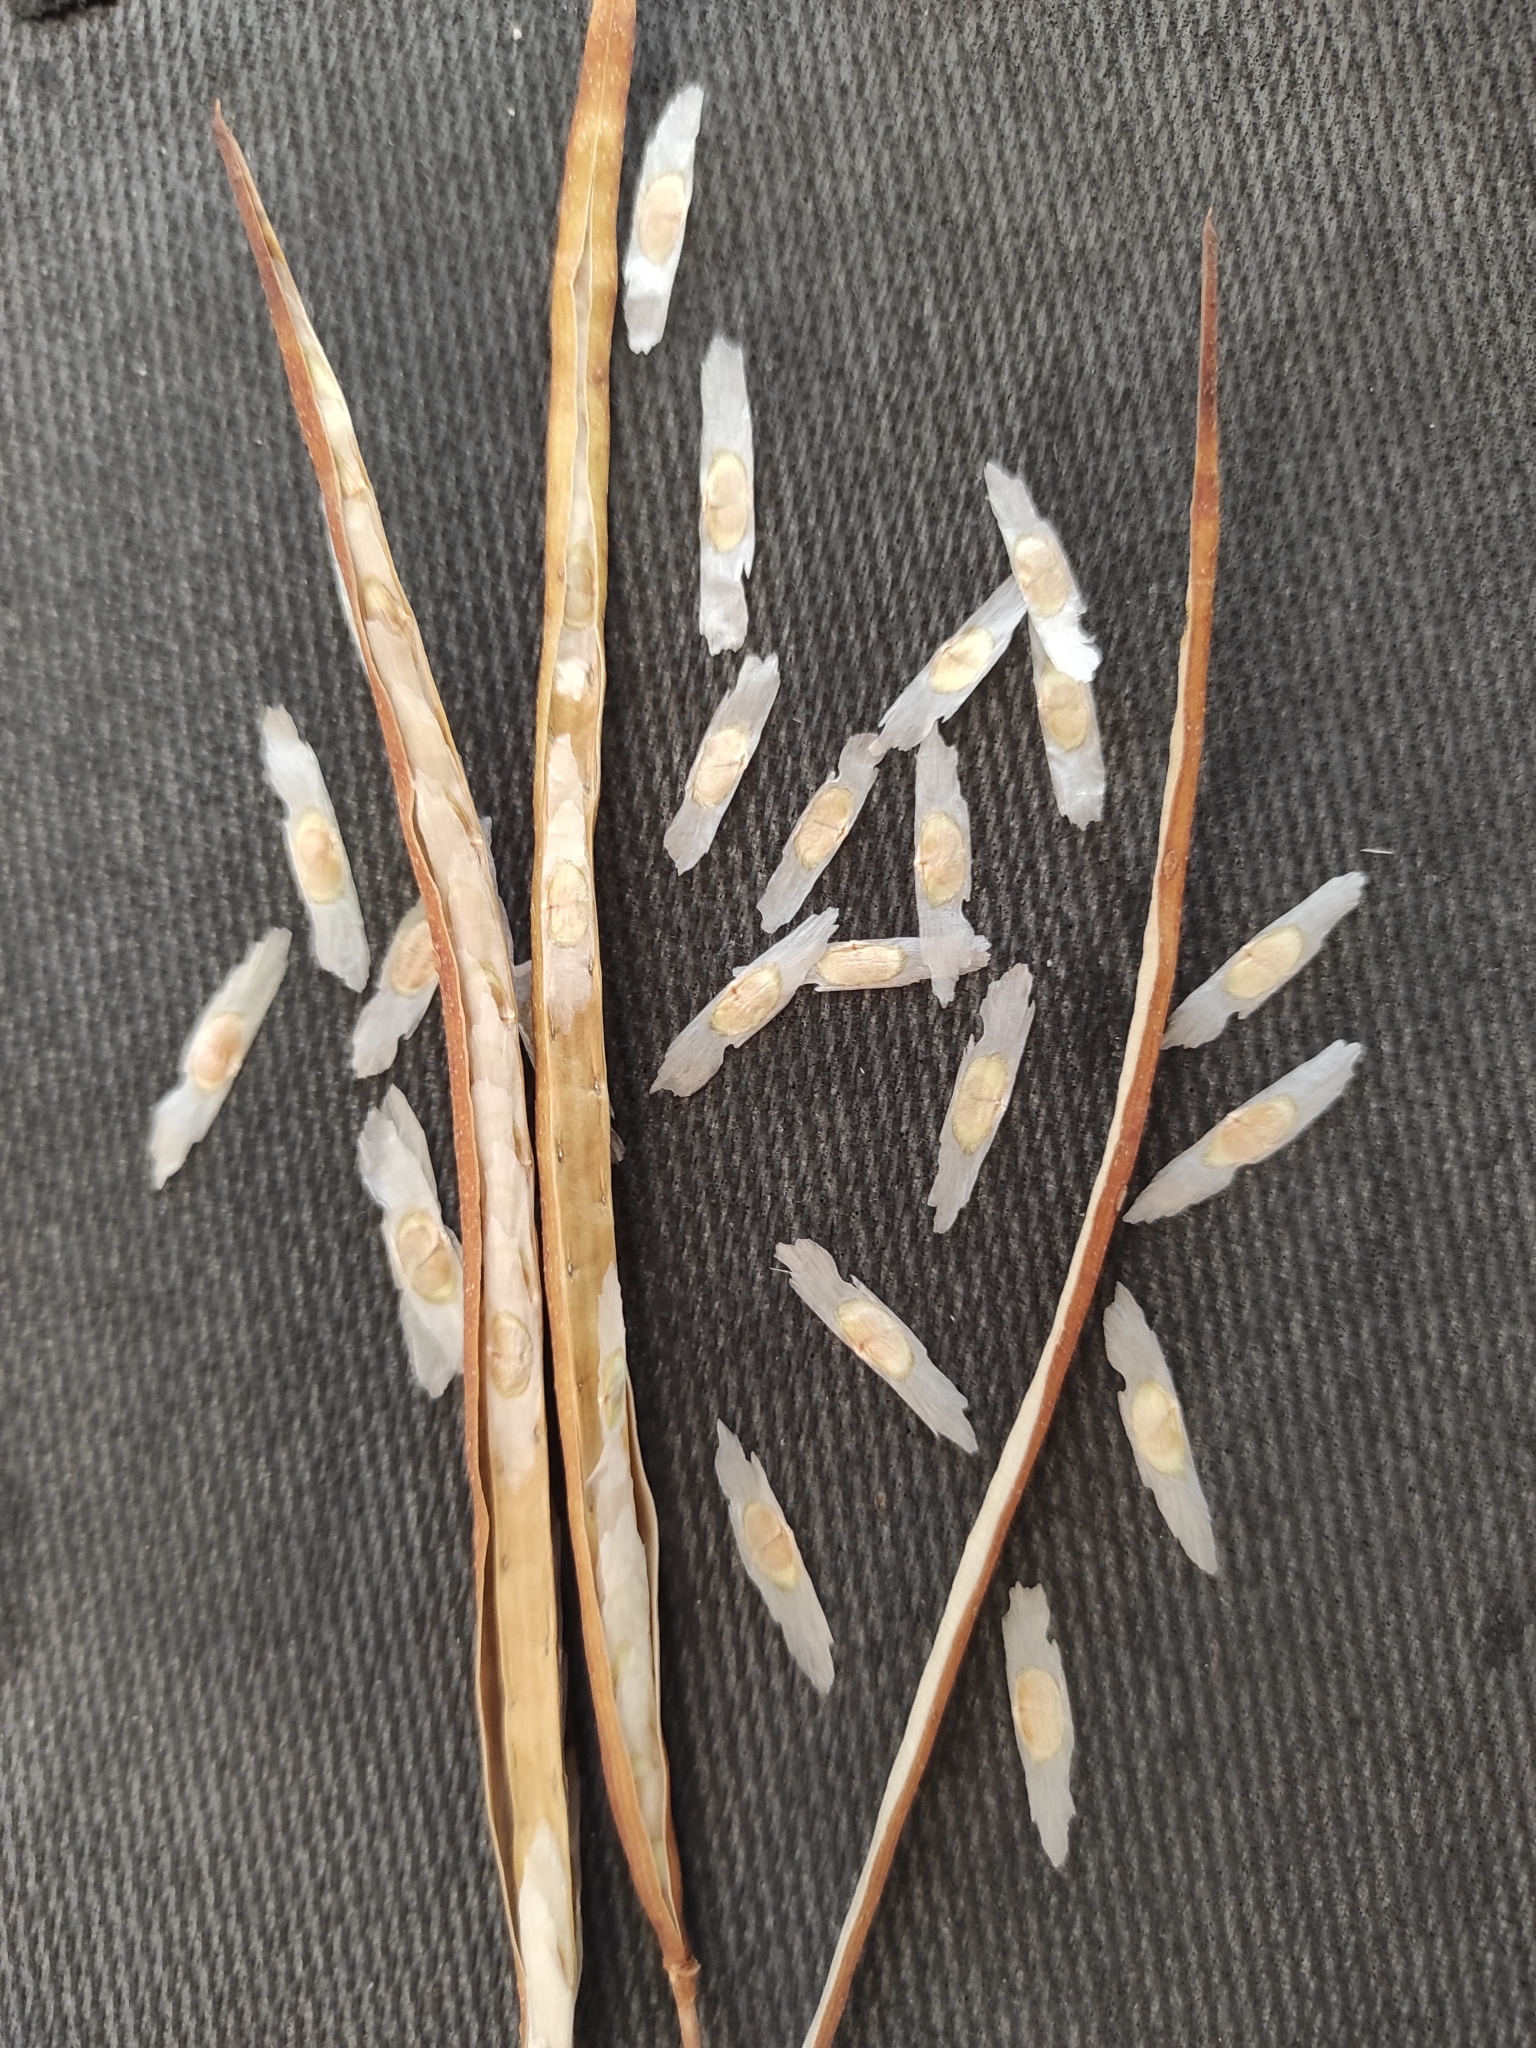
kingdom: Plantae
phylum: Tracheophyta
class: Magnoliopsida
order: Lamiales
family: Bignoniaceae
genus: Tecoma
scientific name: Tecoma stans
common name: Yellow trumpetbush
